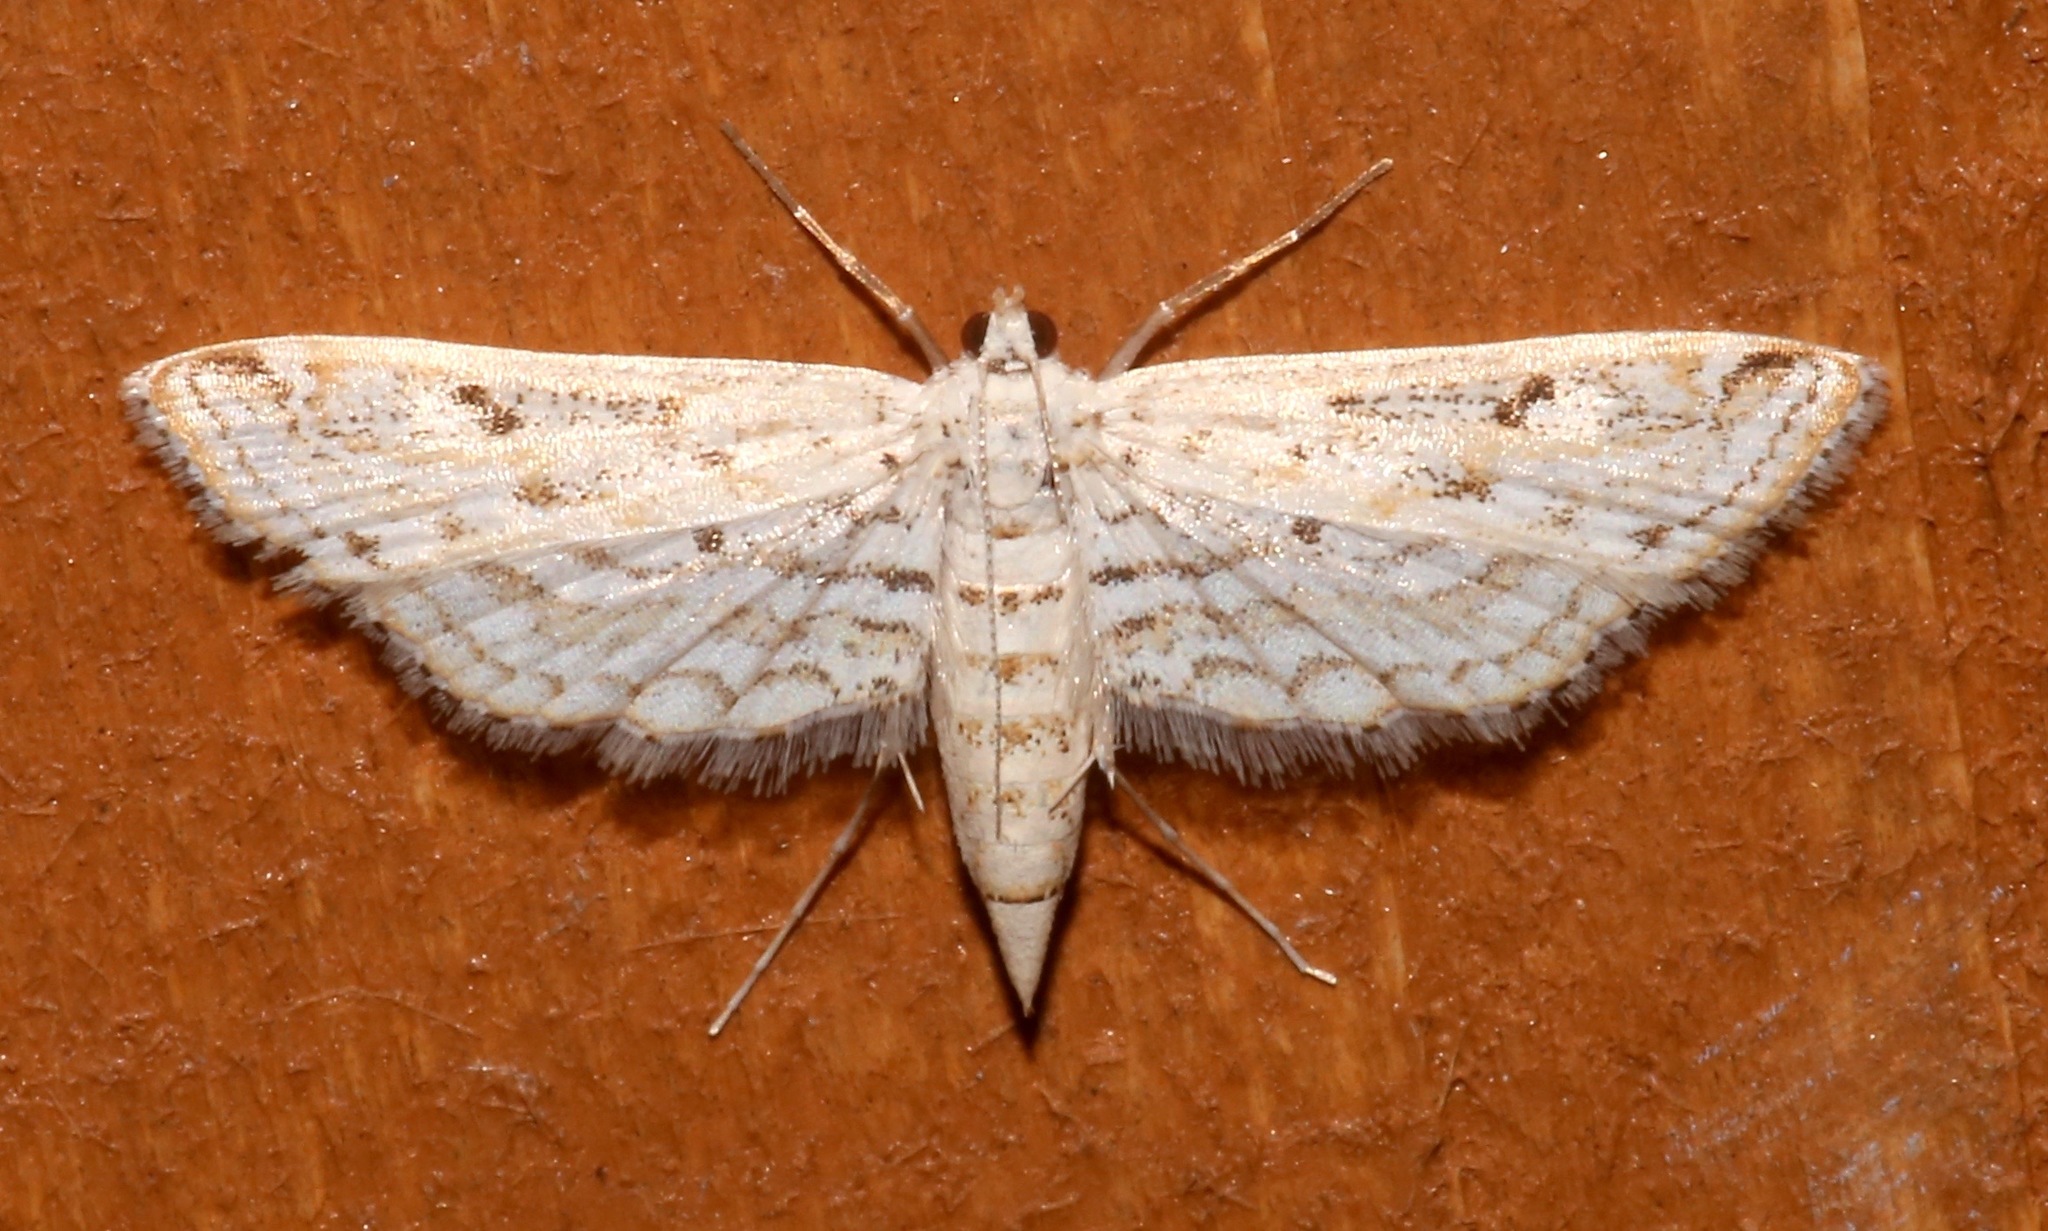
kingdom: Animalia
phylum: Arthropoda
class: Insecta
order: Lepidoptera
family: Crambidae
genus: Parapoynx
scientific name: Parapoynx allionealis
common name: Bladderwort casemaker
